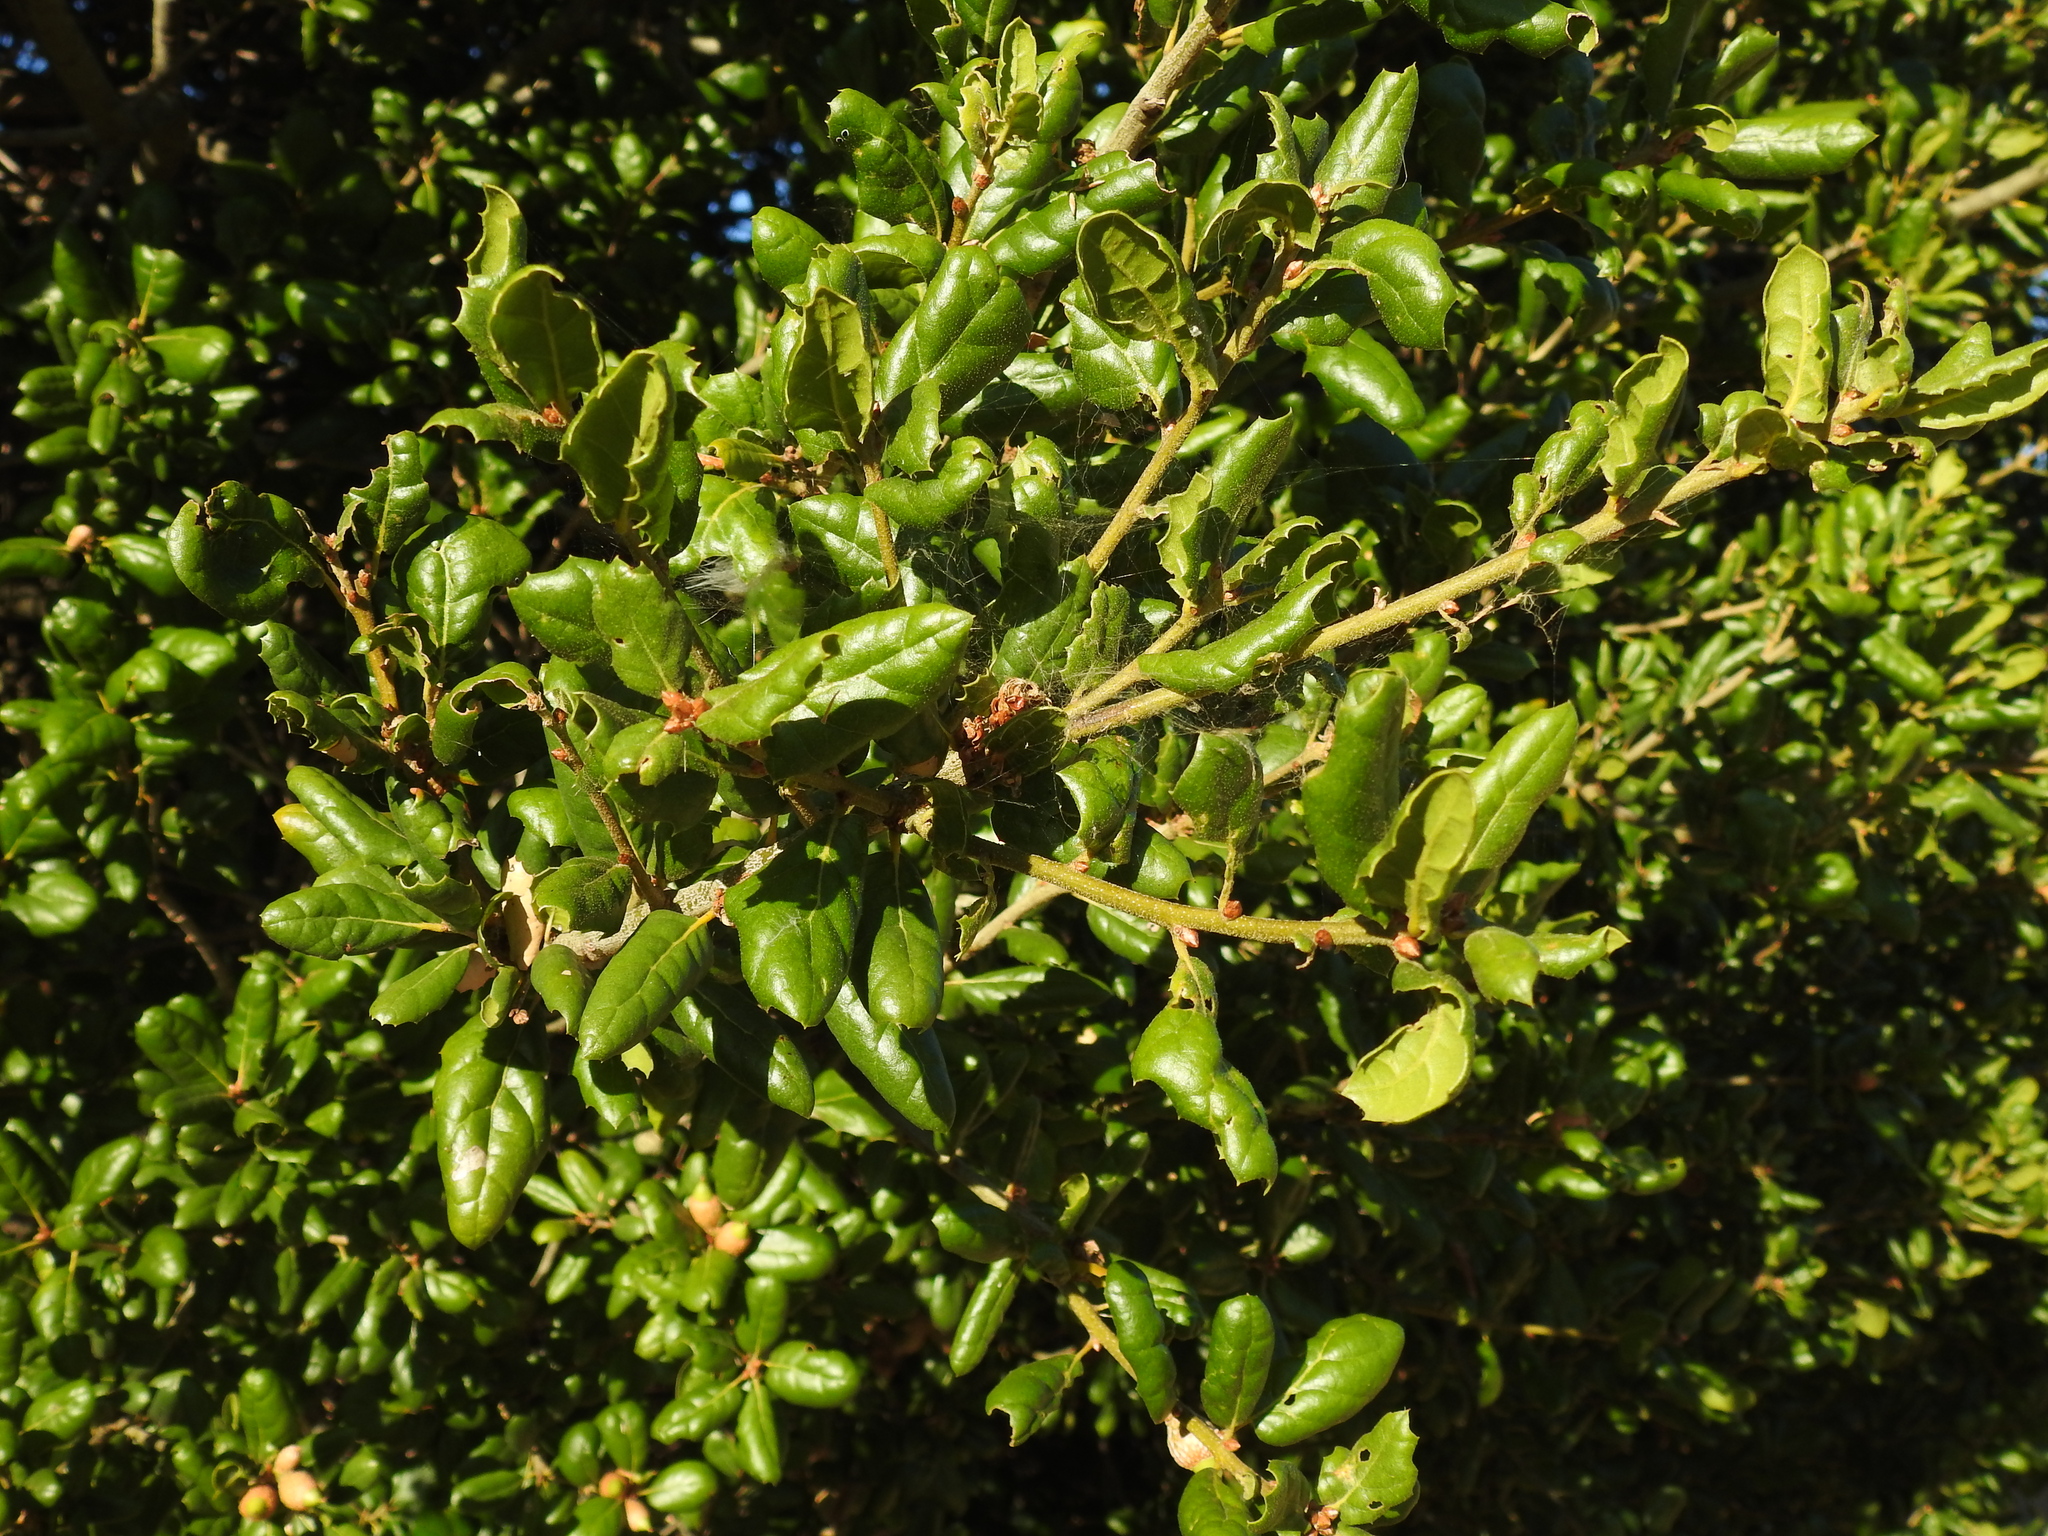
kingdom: Plantae
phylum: Tracheophyta
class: Magnoliopsida
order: Fagales
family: Fagaceae
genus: Quercus
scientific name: Quercus agrifolia
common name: California live oak
